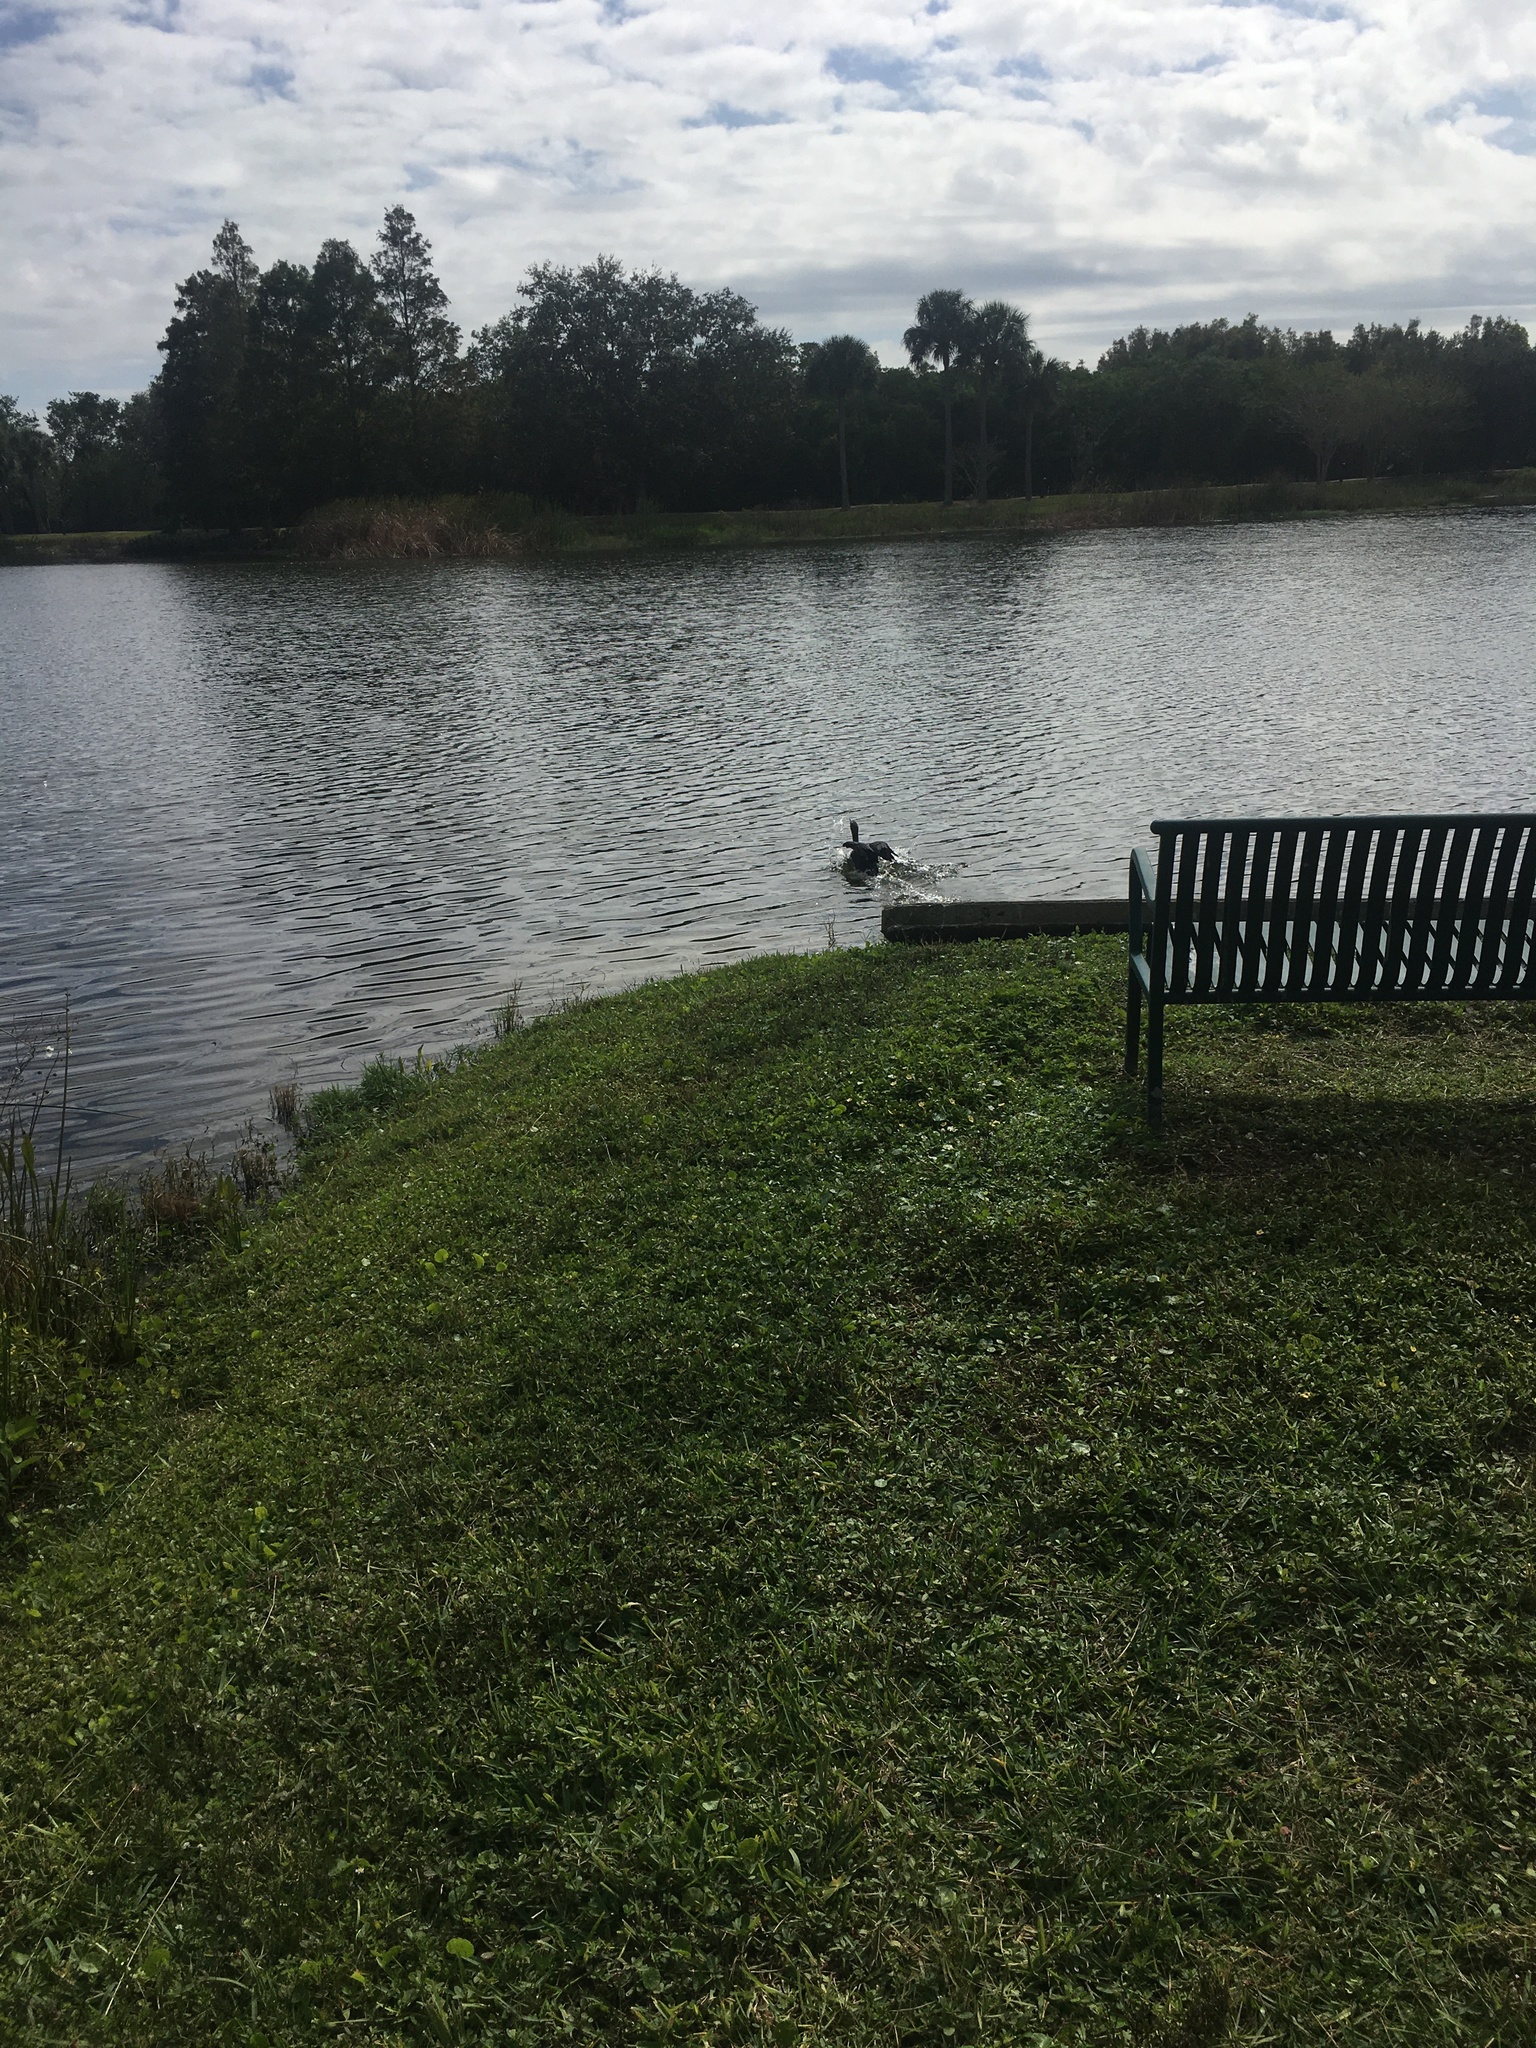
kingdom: Animalia
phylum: Chordata
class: Aves
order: Suliformes
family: Phalacrocoracidae
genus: Phalacrocorax
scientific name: Phalacrocorax auritus
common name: Double-crested cormorant
